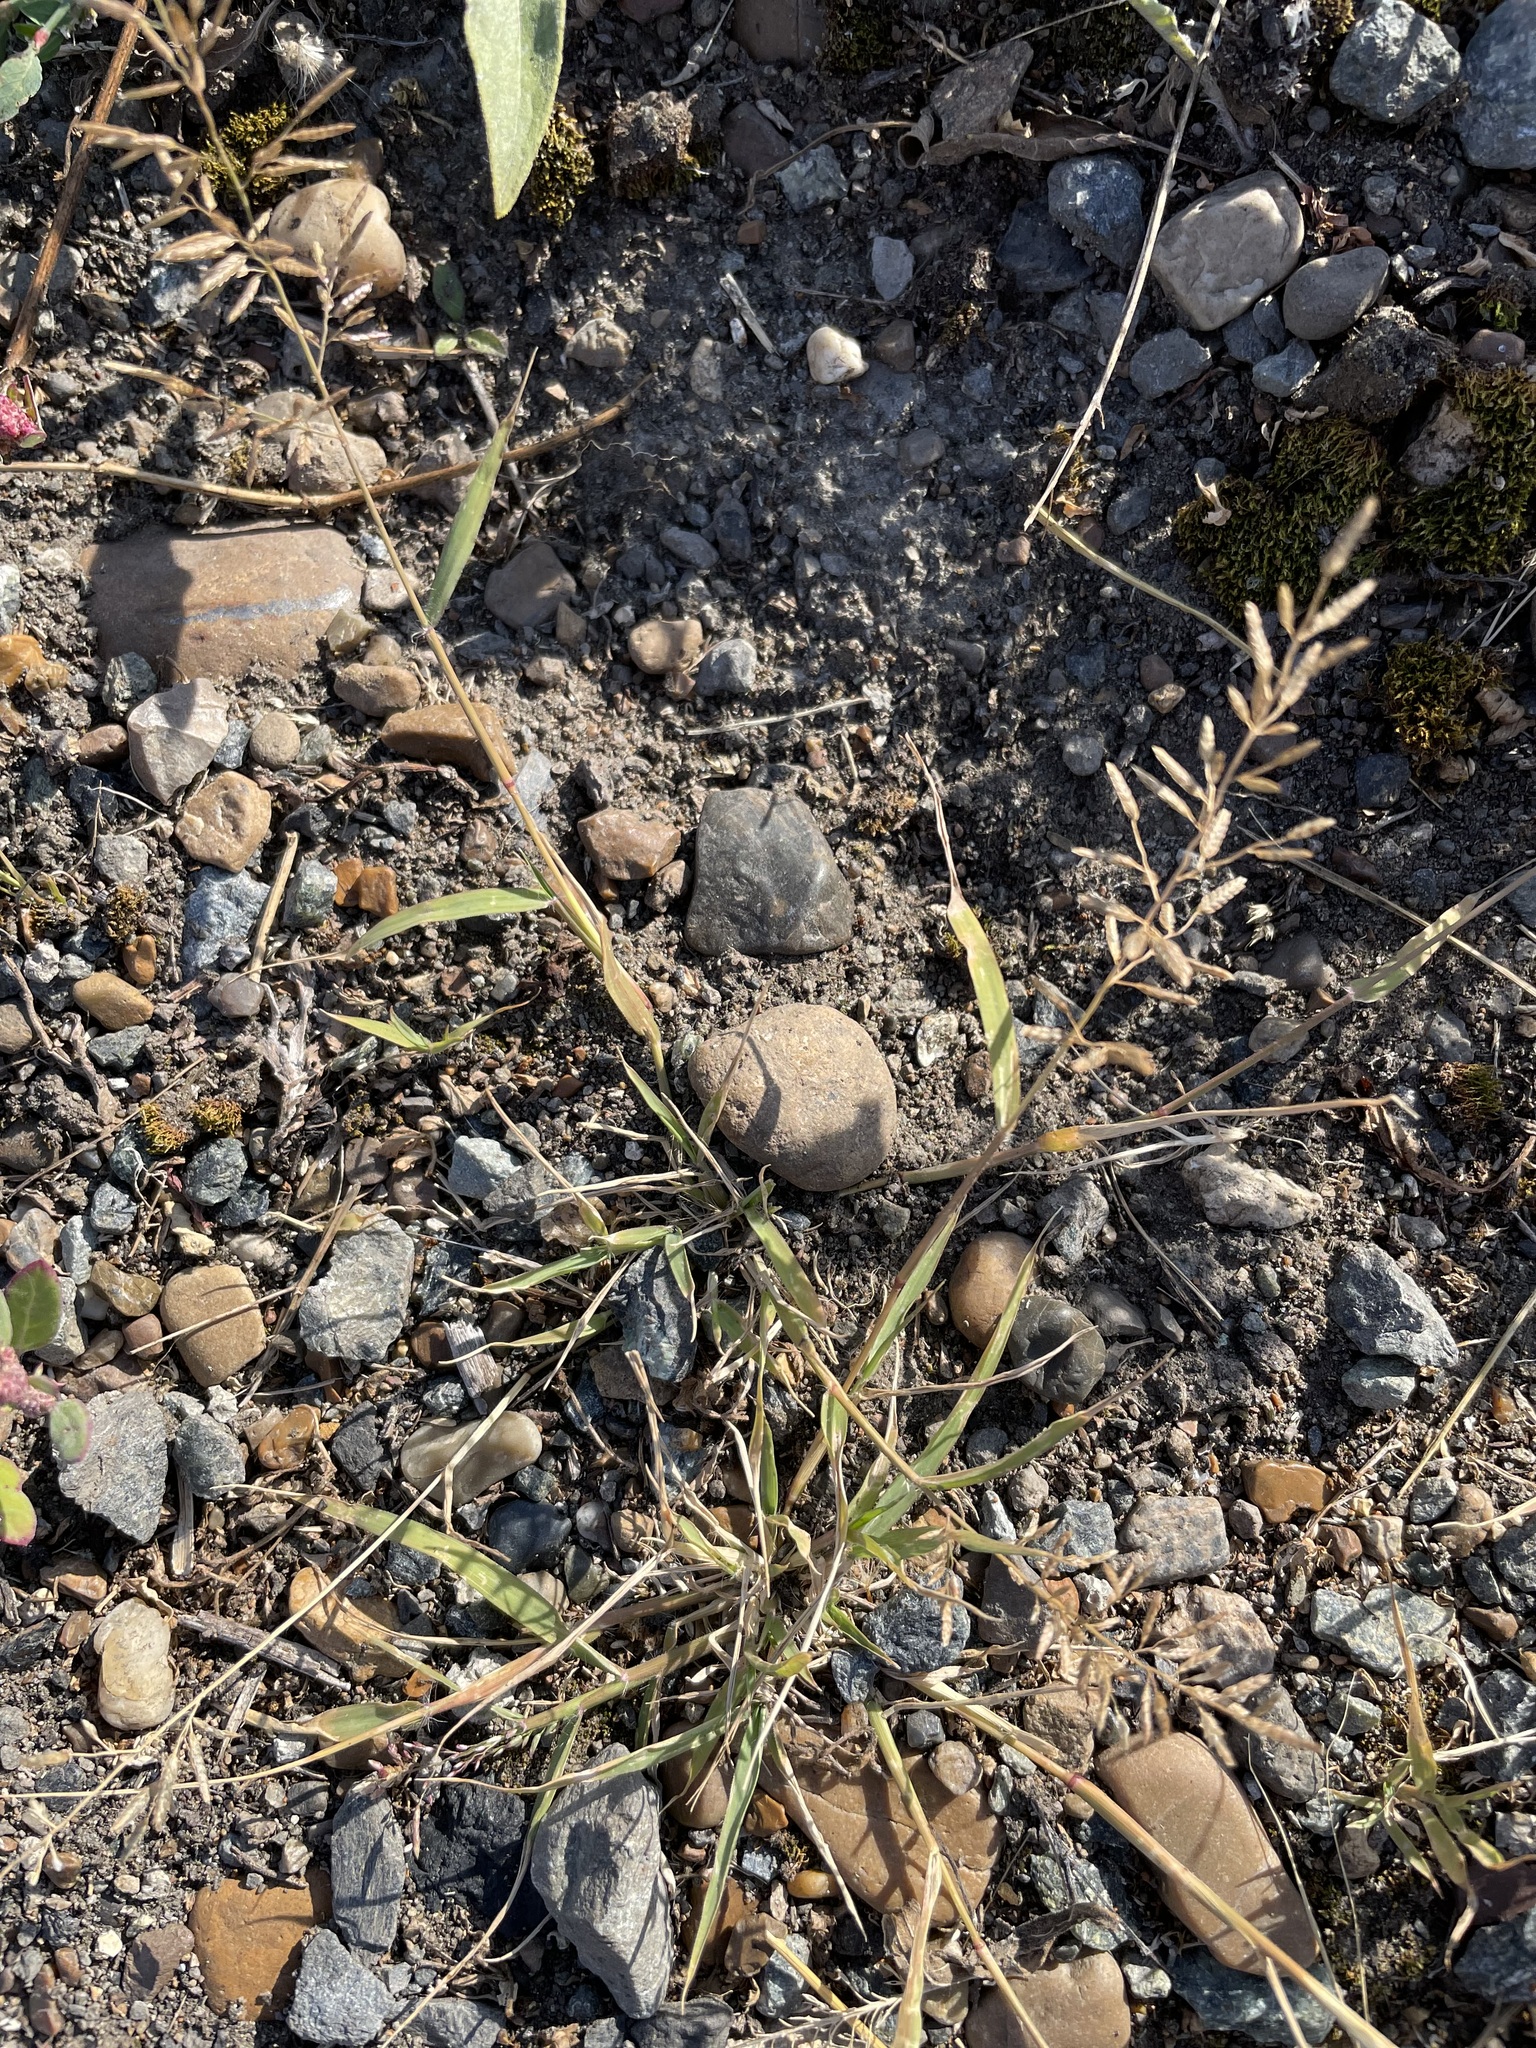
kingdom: Plantae
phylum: Tracheophyta
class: Liliopsida
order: Poales
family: Poaceae
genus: Eragrostis
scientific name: Eragrostis minor
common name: Small love-grass
